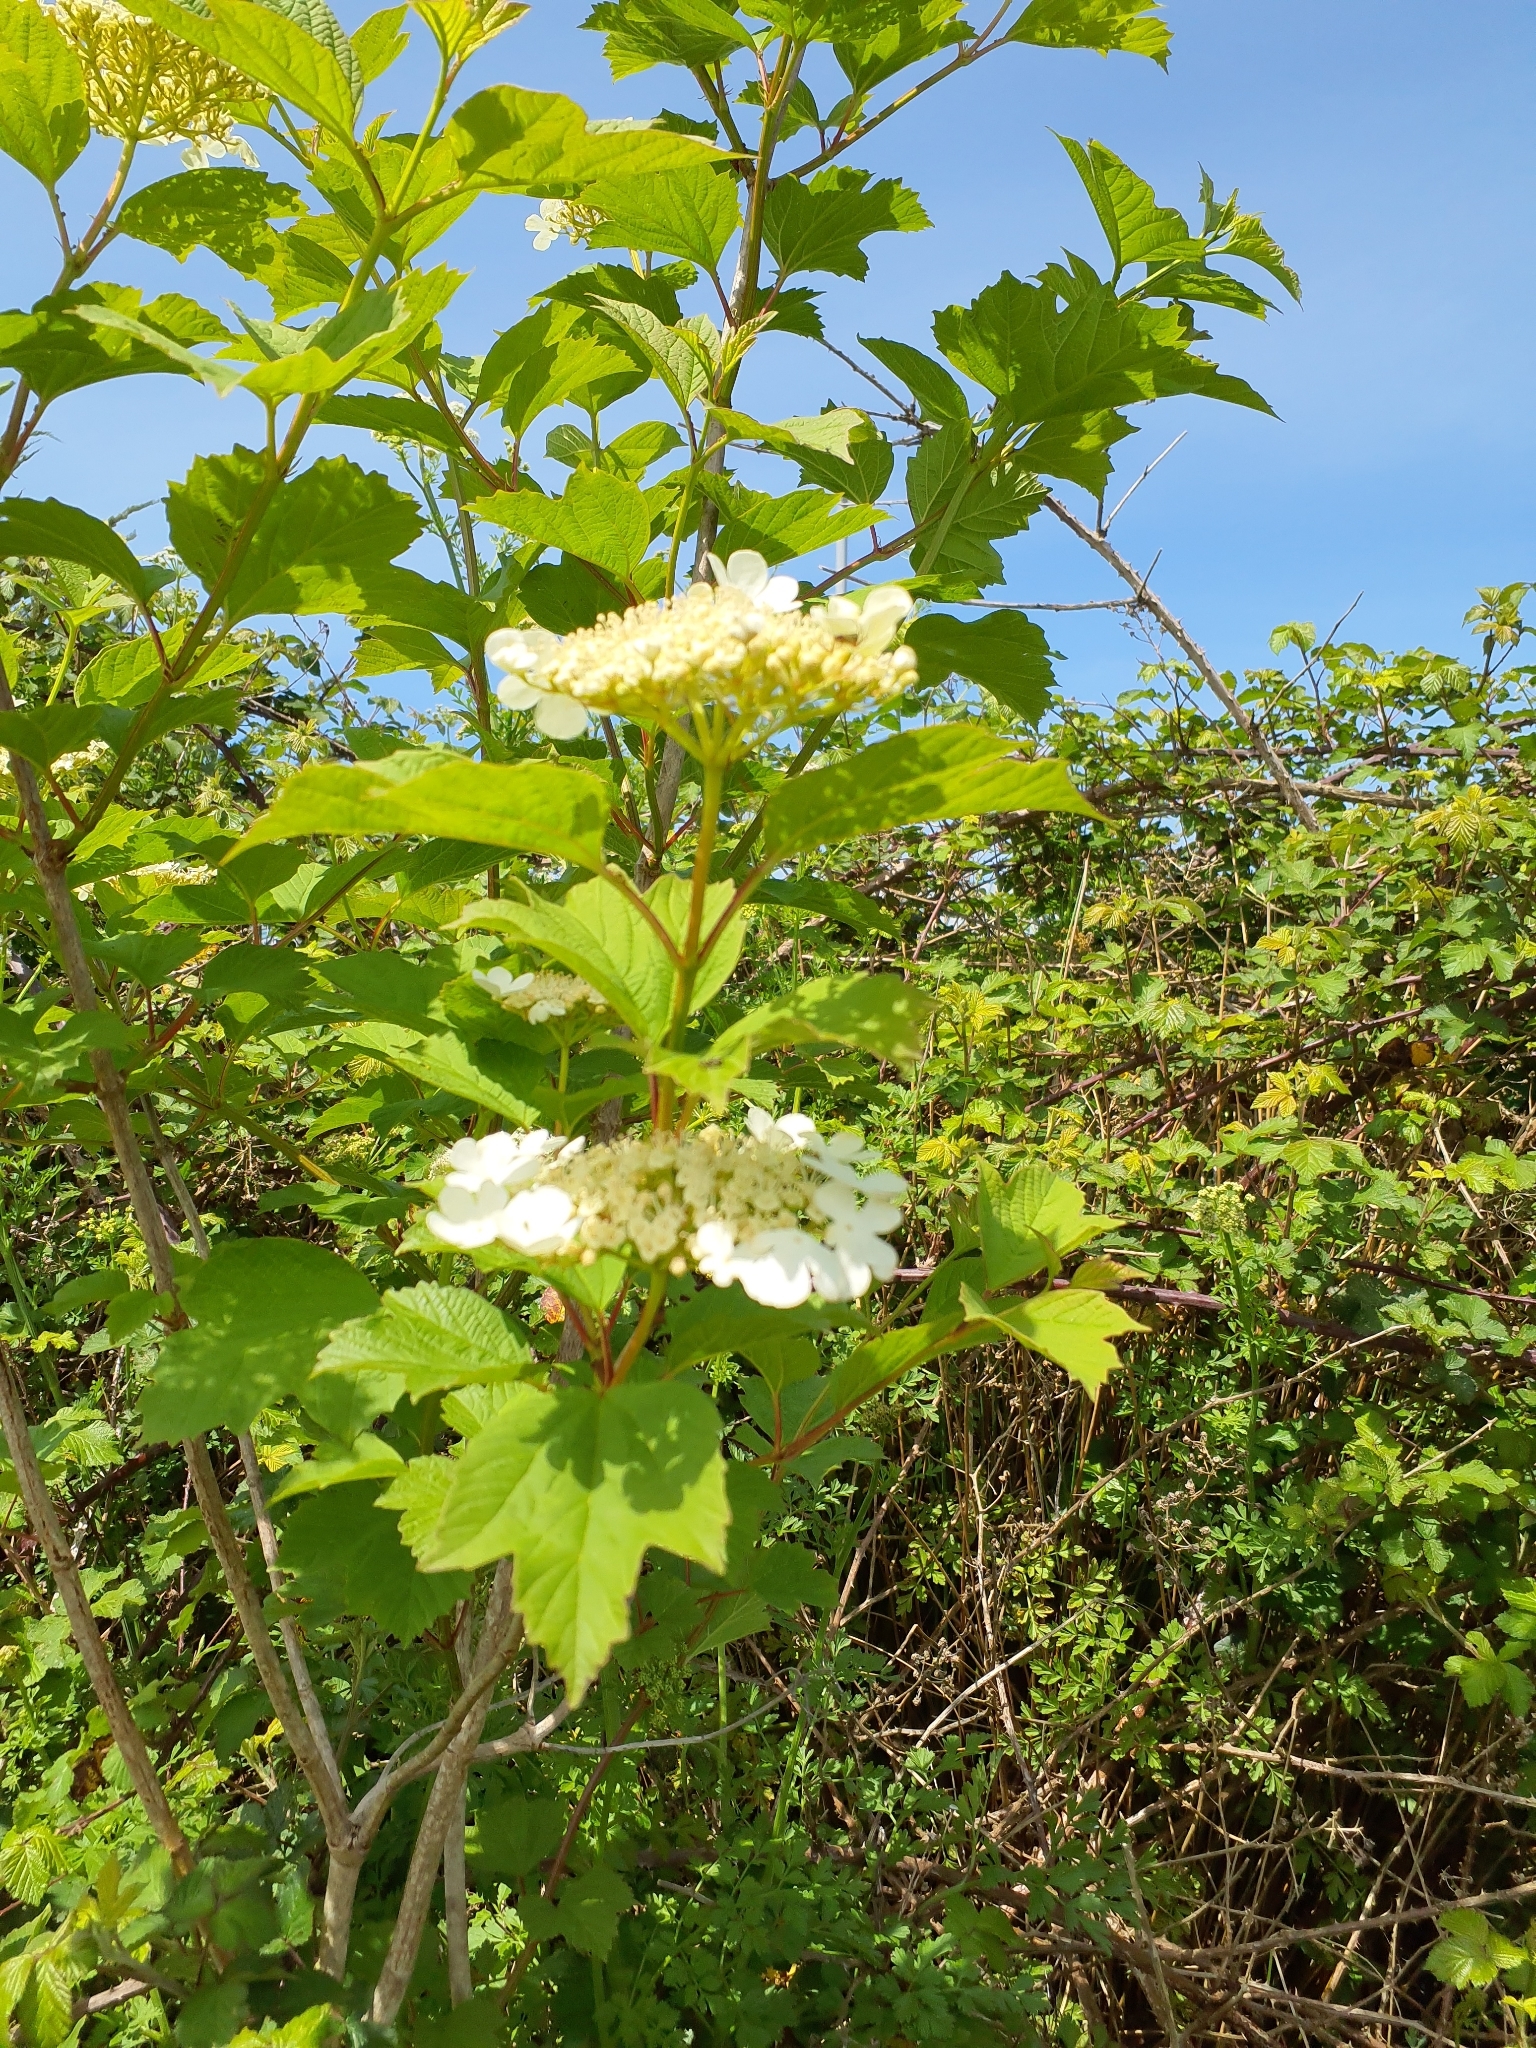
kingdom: Plantae
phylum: Tracheophyta
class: Magnoliopsida
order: Dipsacales
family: Viburnaceae
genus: Viburnum
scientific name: Viburnum opulus
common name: Guelder-rose
